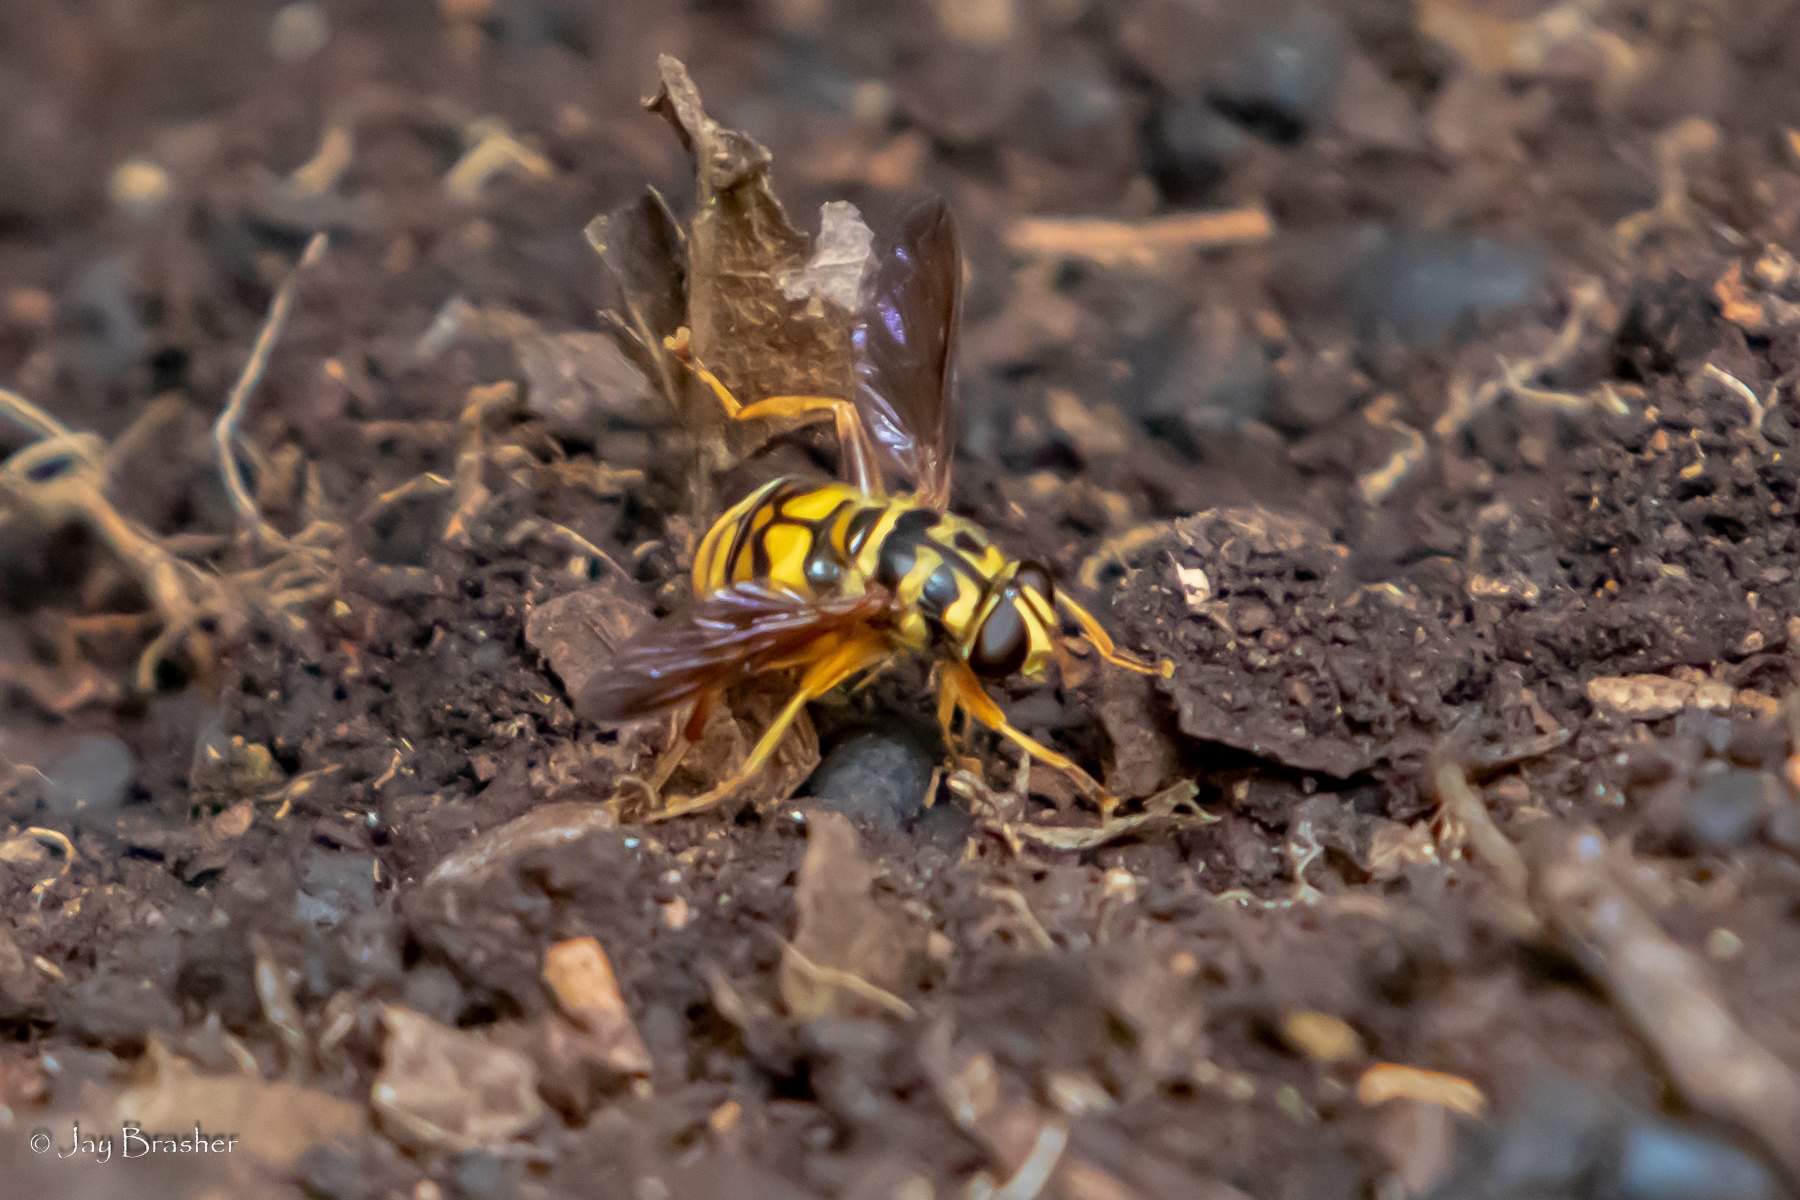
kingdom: Animalia
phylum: Arthropoda
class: Insecta
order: Diptera
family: Syrphidae
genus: Milesia
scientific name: Milesia virginiensis
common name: Virginia giant
